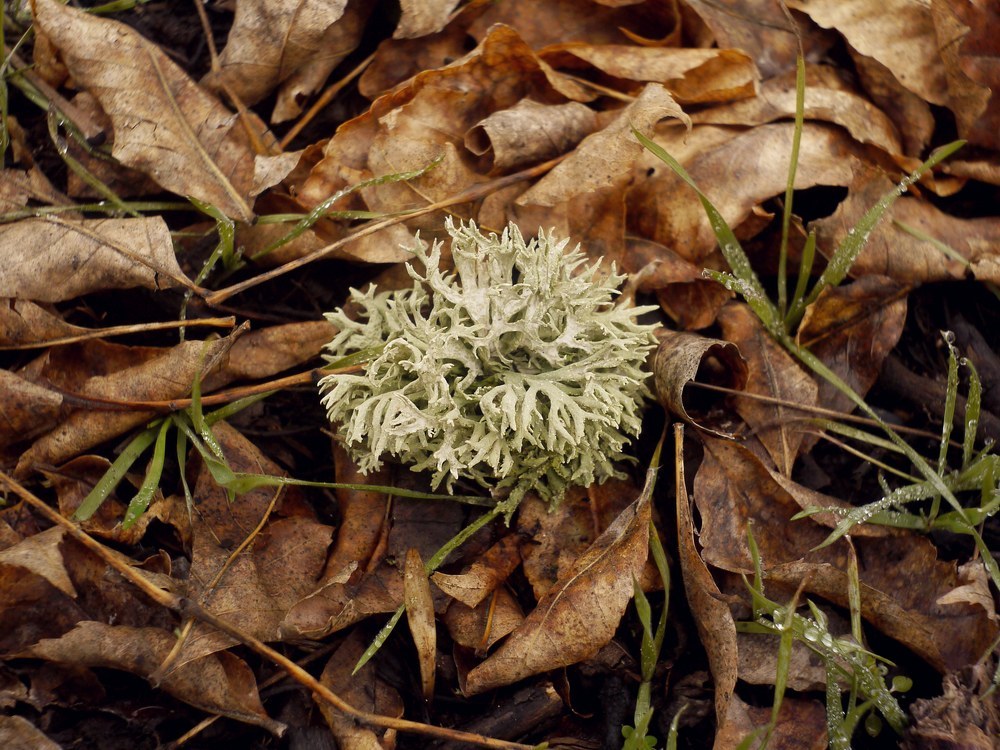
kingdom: Fungi
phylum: Ascomycota
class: Lecanoromycetes
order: Lecanorales
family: Parmeliaceae
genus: Evernia
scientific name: Evernia prunastri
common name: Oak moss
